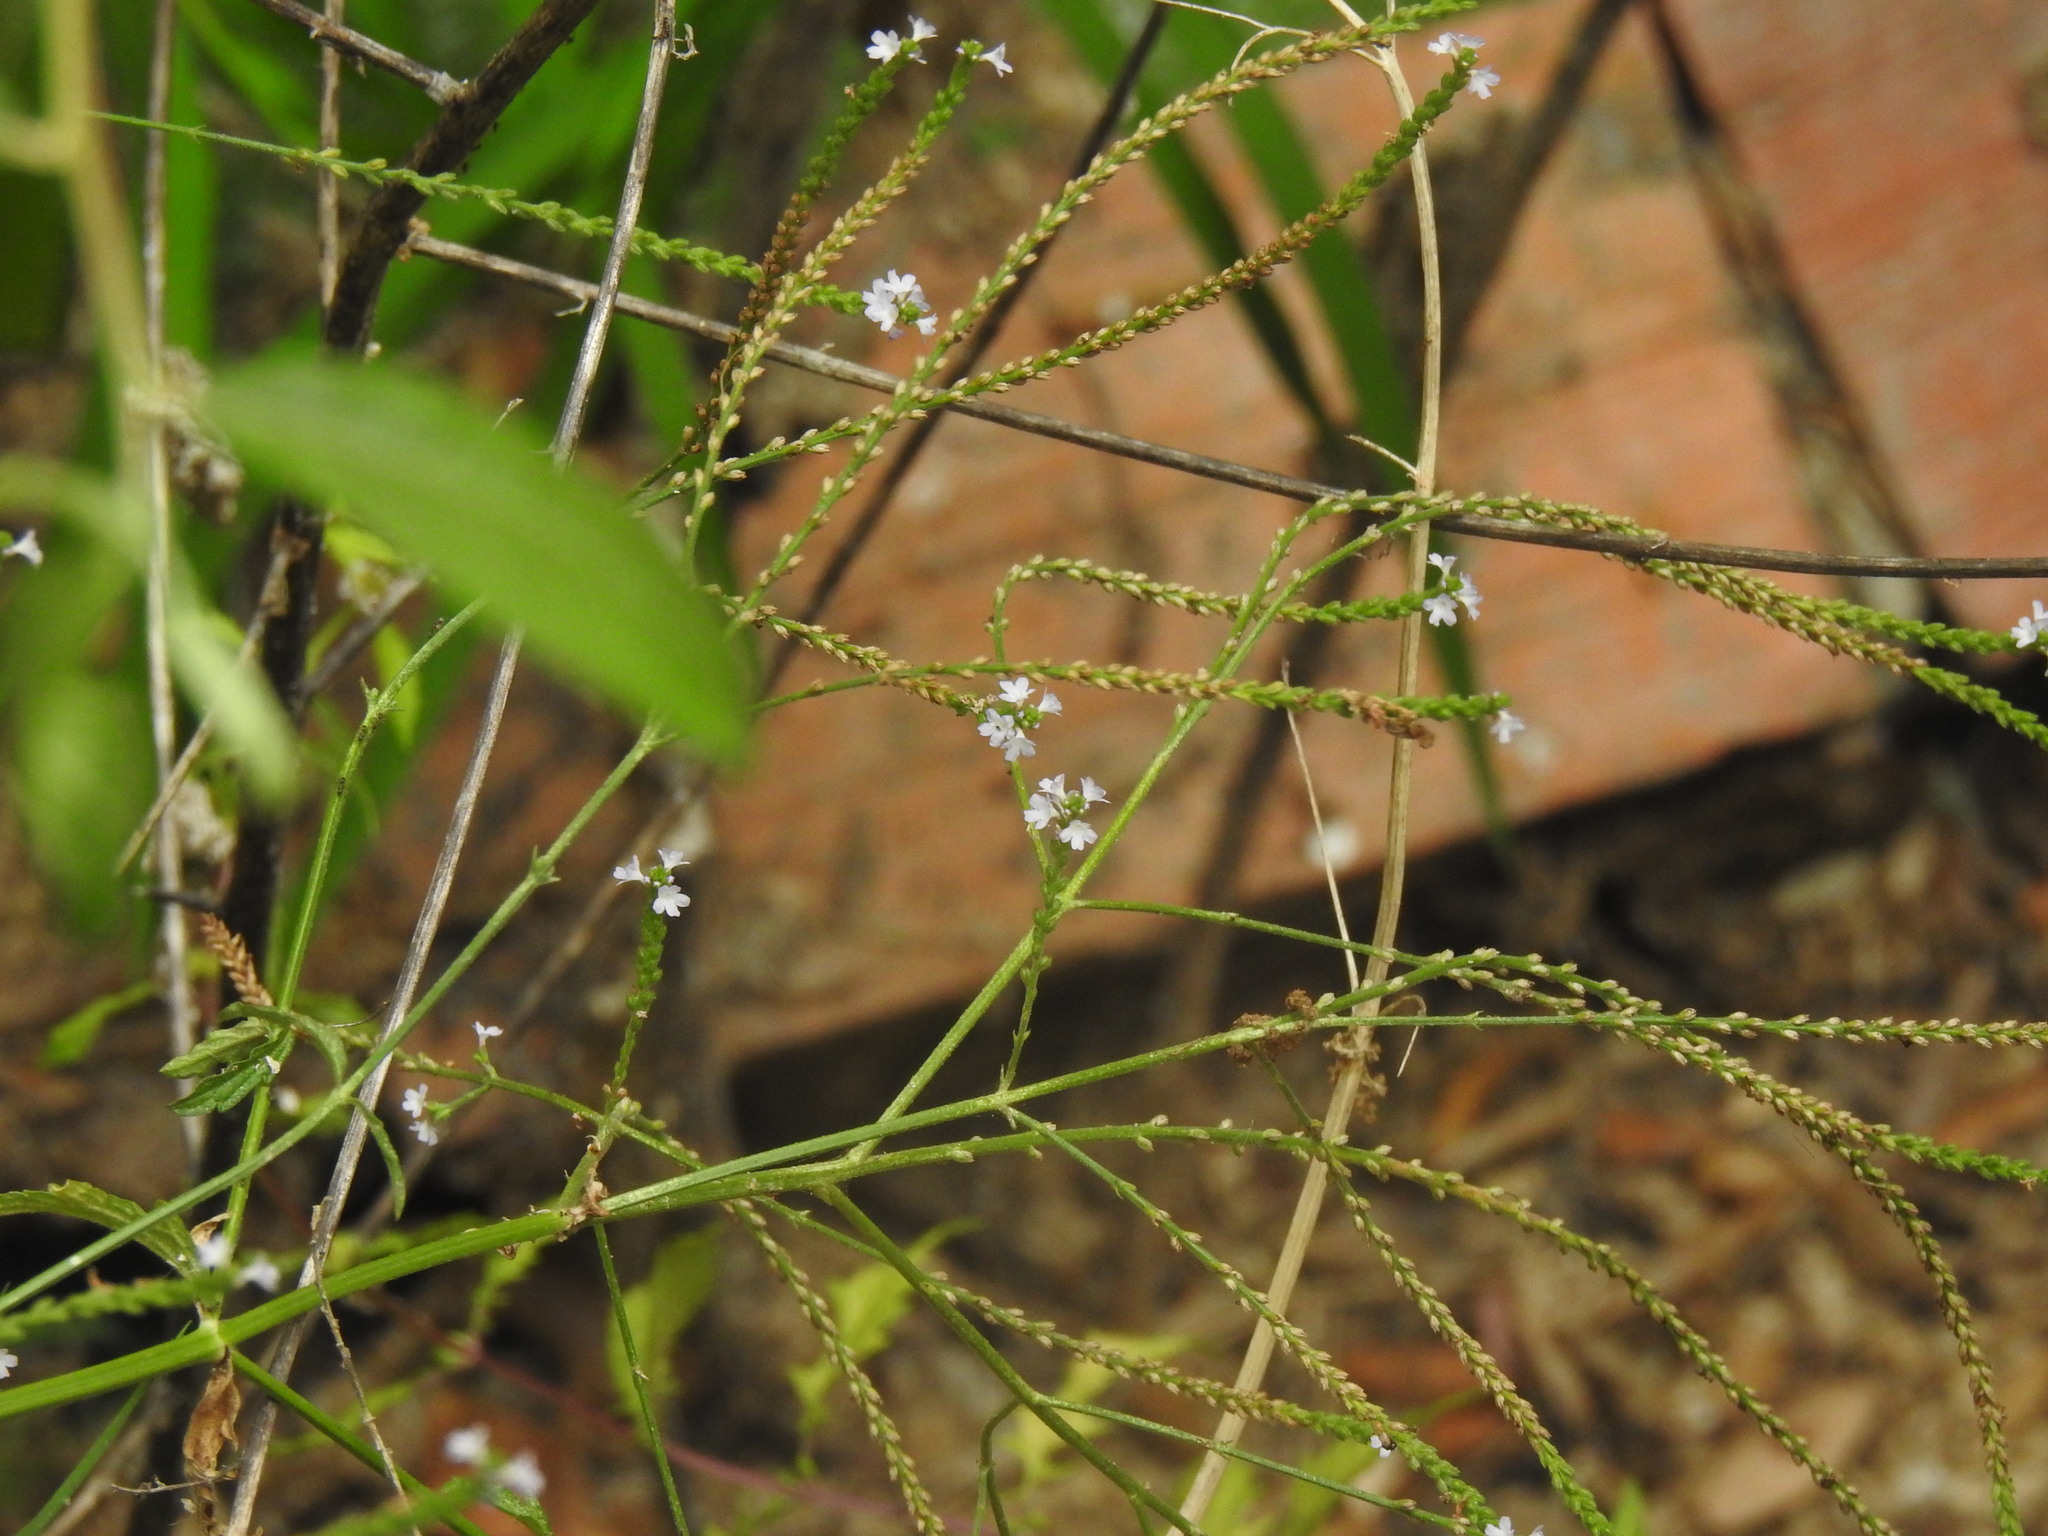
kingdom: Plantae
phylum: Tracheophyta
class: Magnoliopsida
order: Lamiales
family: Verbenaceae
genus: Verbena
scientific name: Verbena officinalis
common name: Vervain
